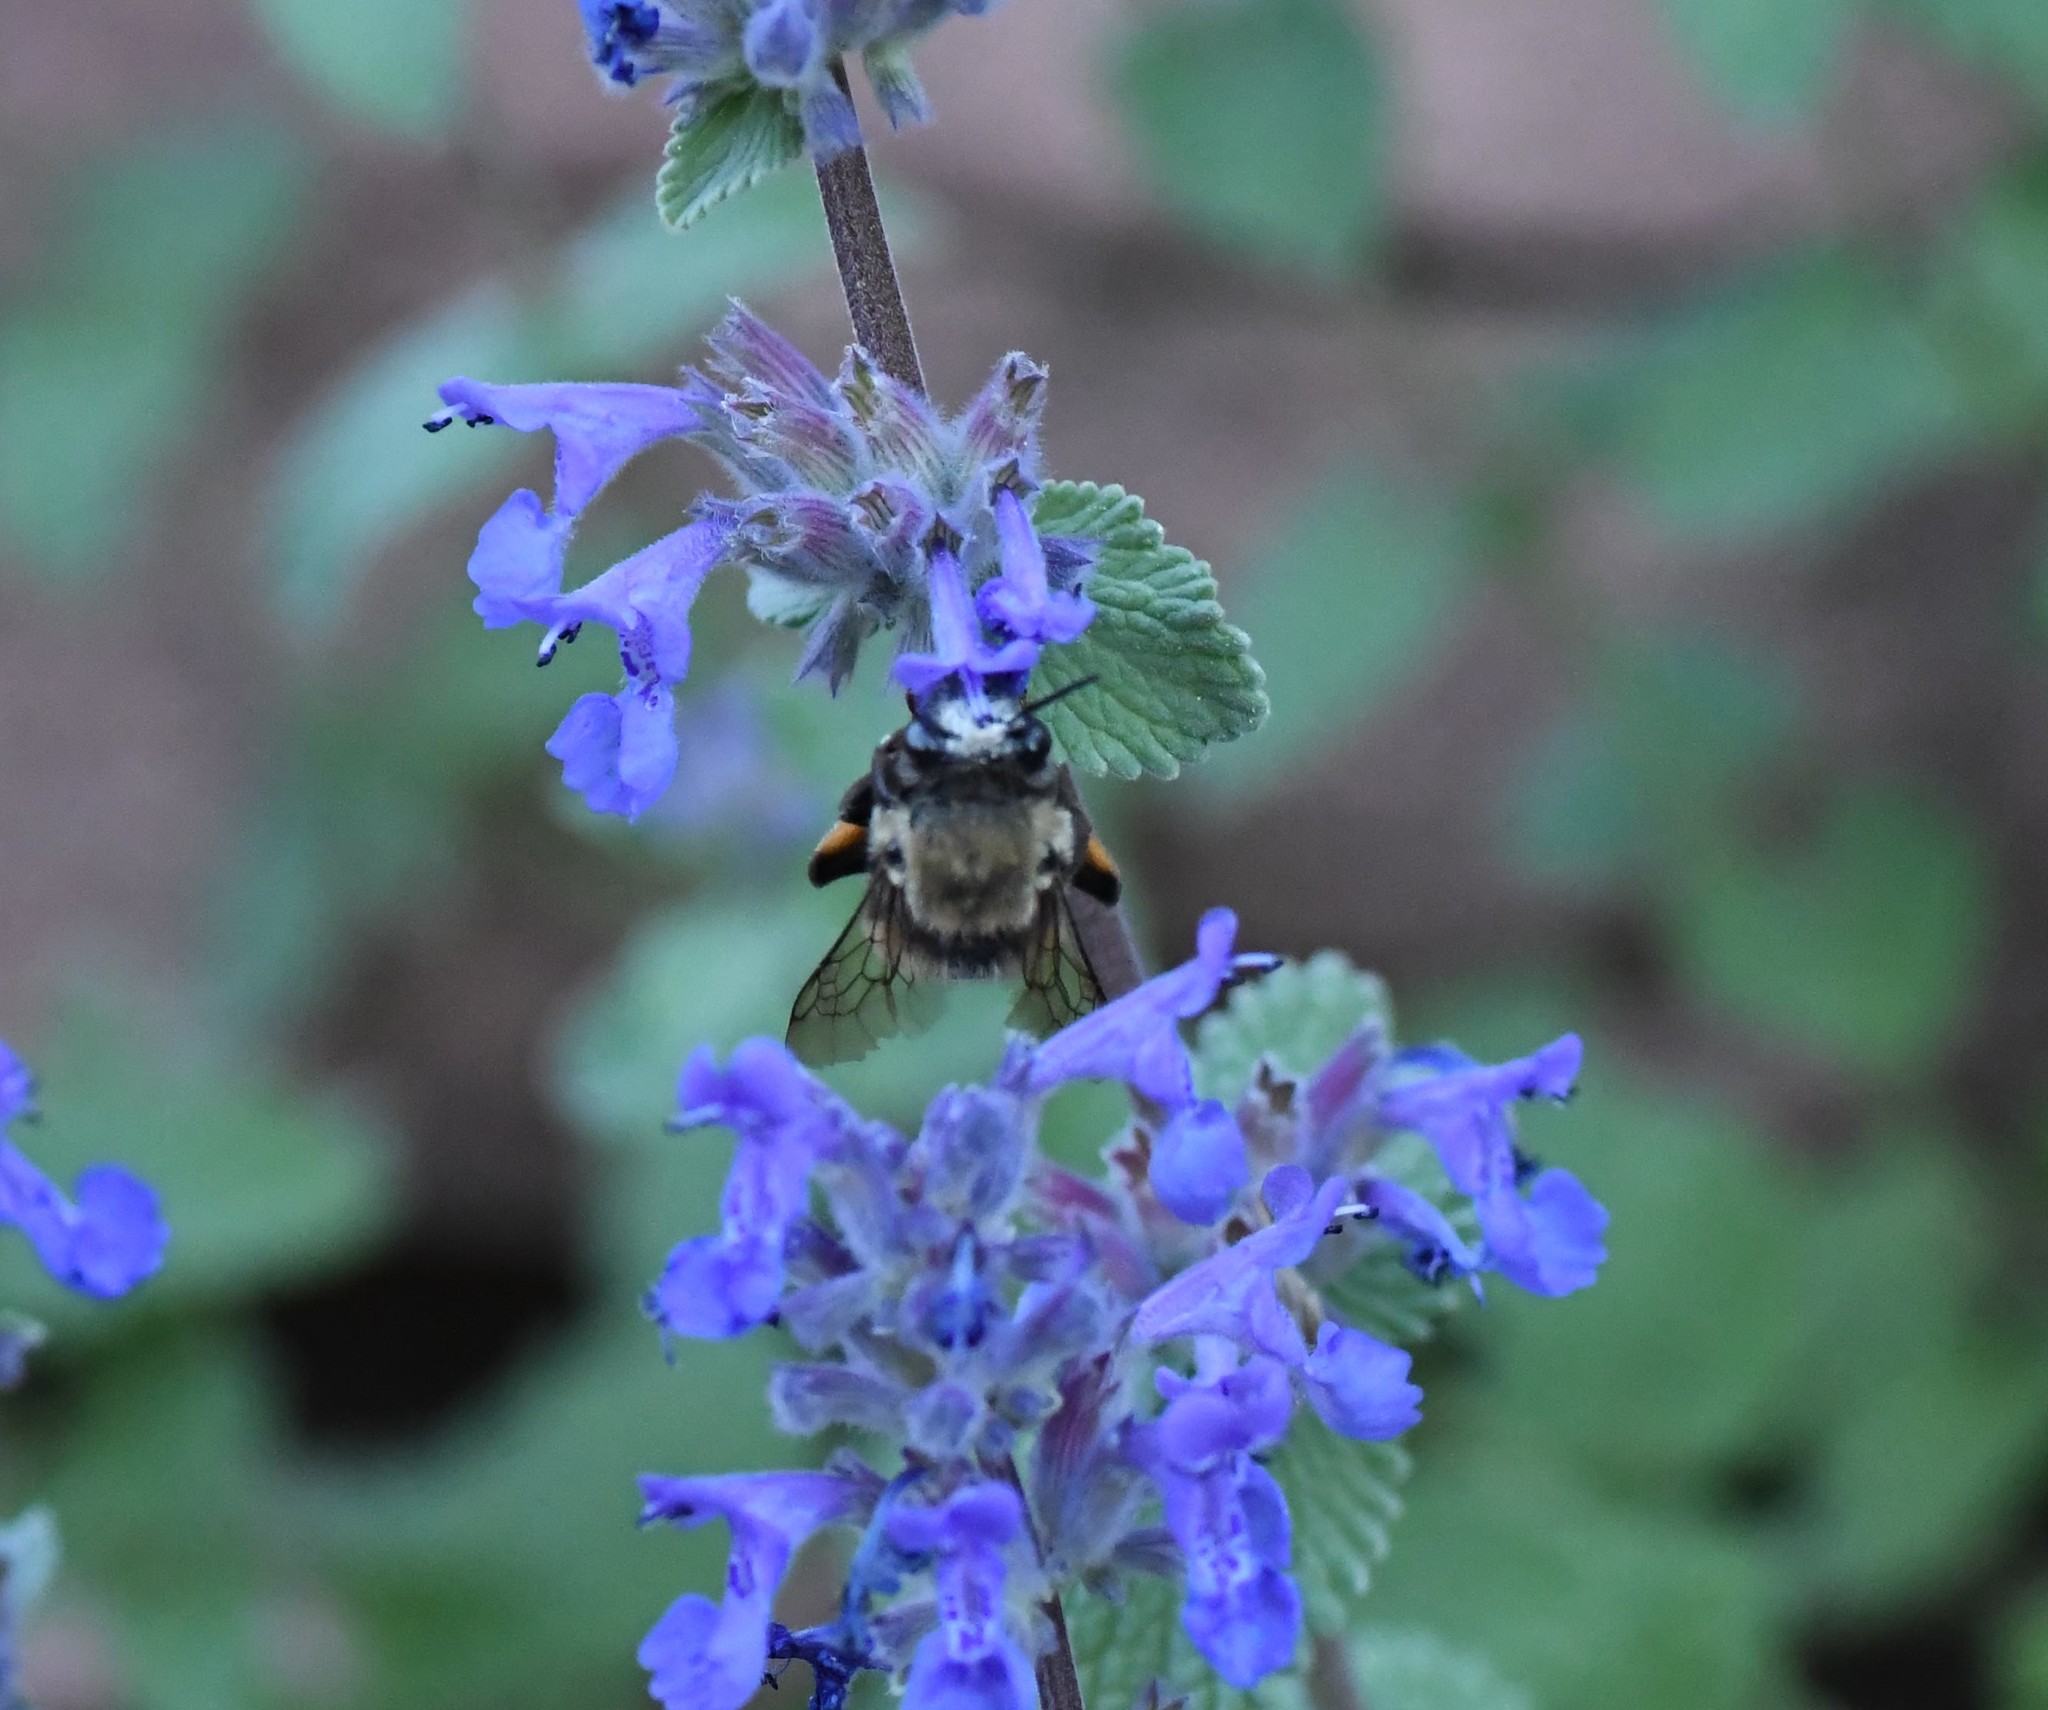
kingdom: Animalia
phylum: Arthropoda
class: Insecta
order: Hymenoptera
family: Apidae
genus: Habropoda
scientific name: Habropoda cineraria
